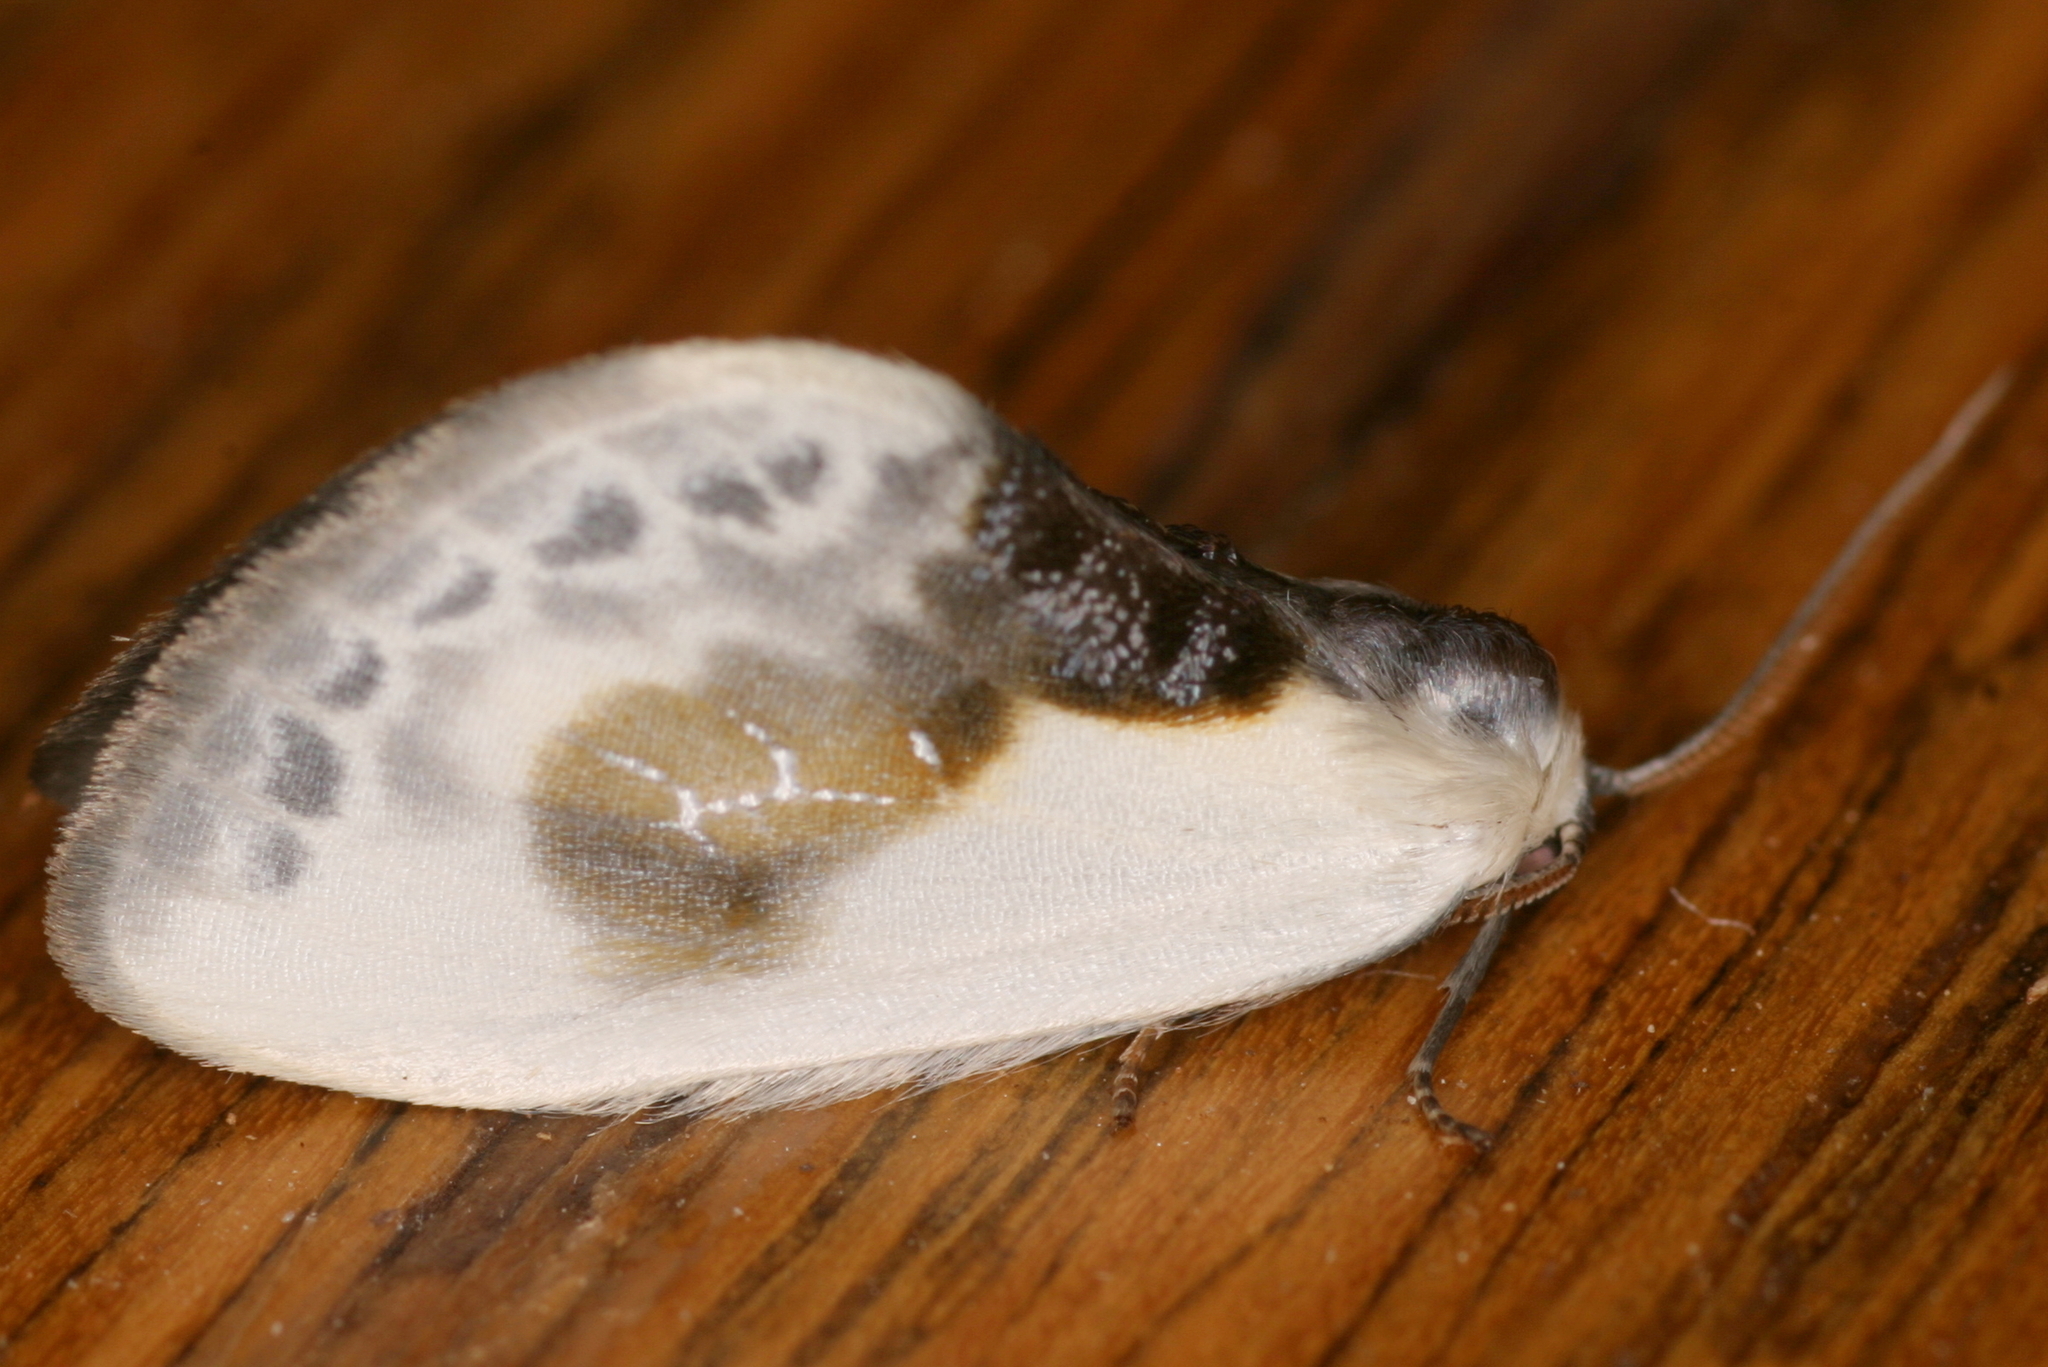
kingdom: Animalia
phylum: Arthropoda
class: Insecta
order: Lepidoptera
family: Drepanidae
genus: Cilix
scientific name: Cilix glaucata
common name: Chinese character
